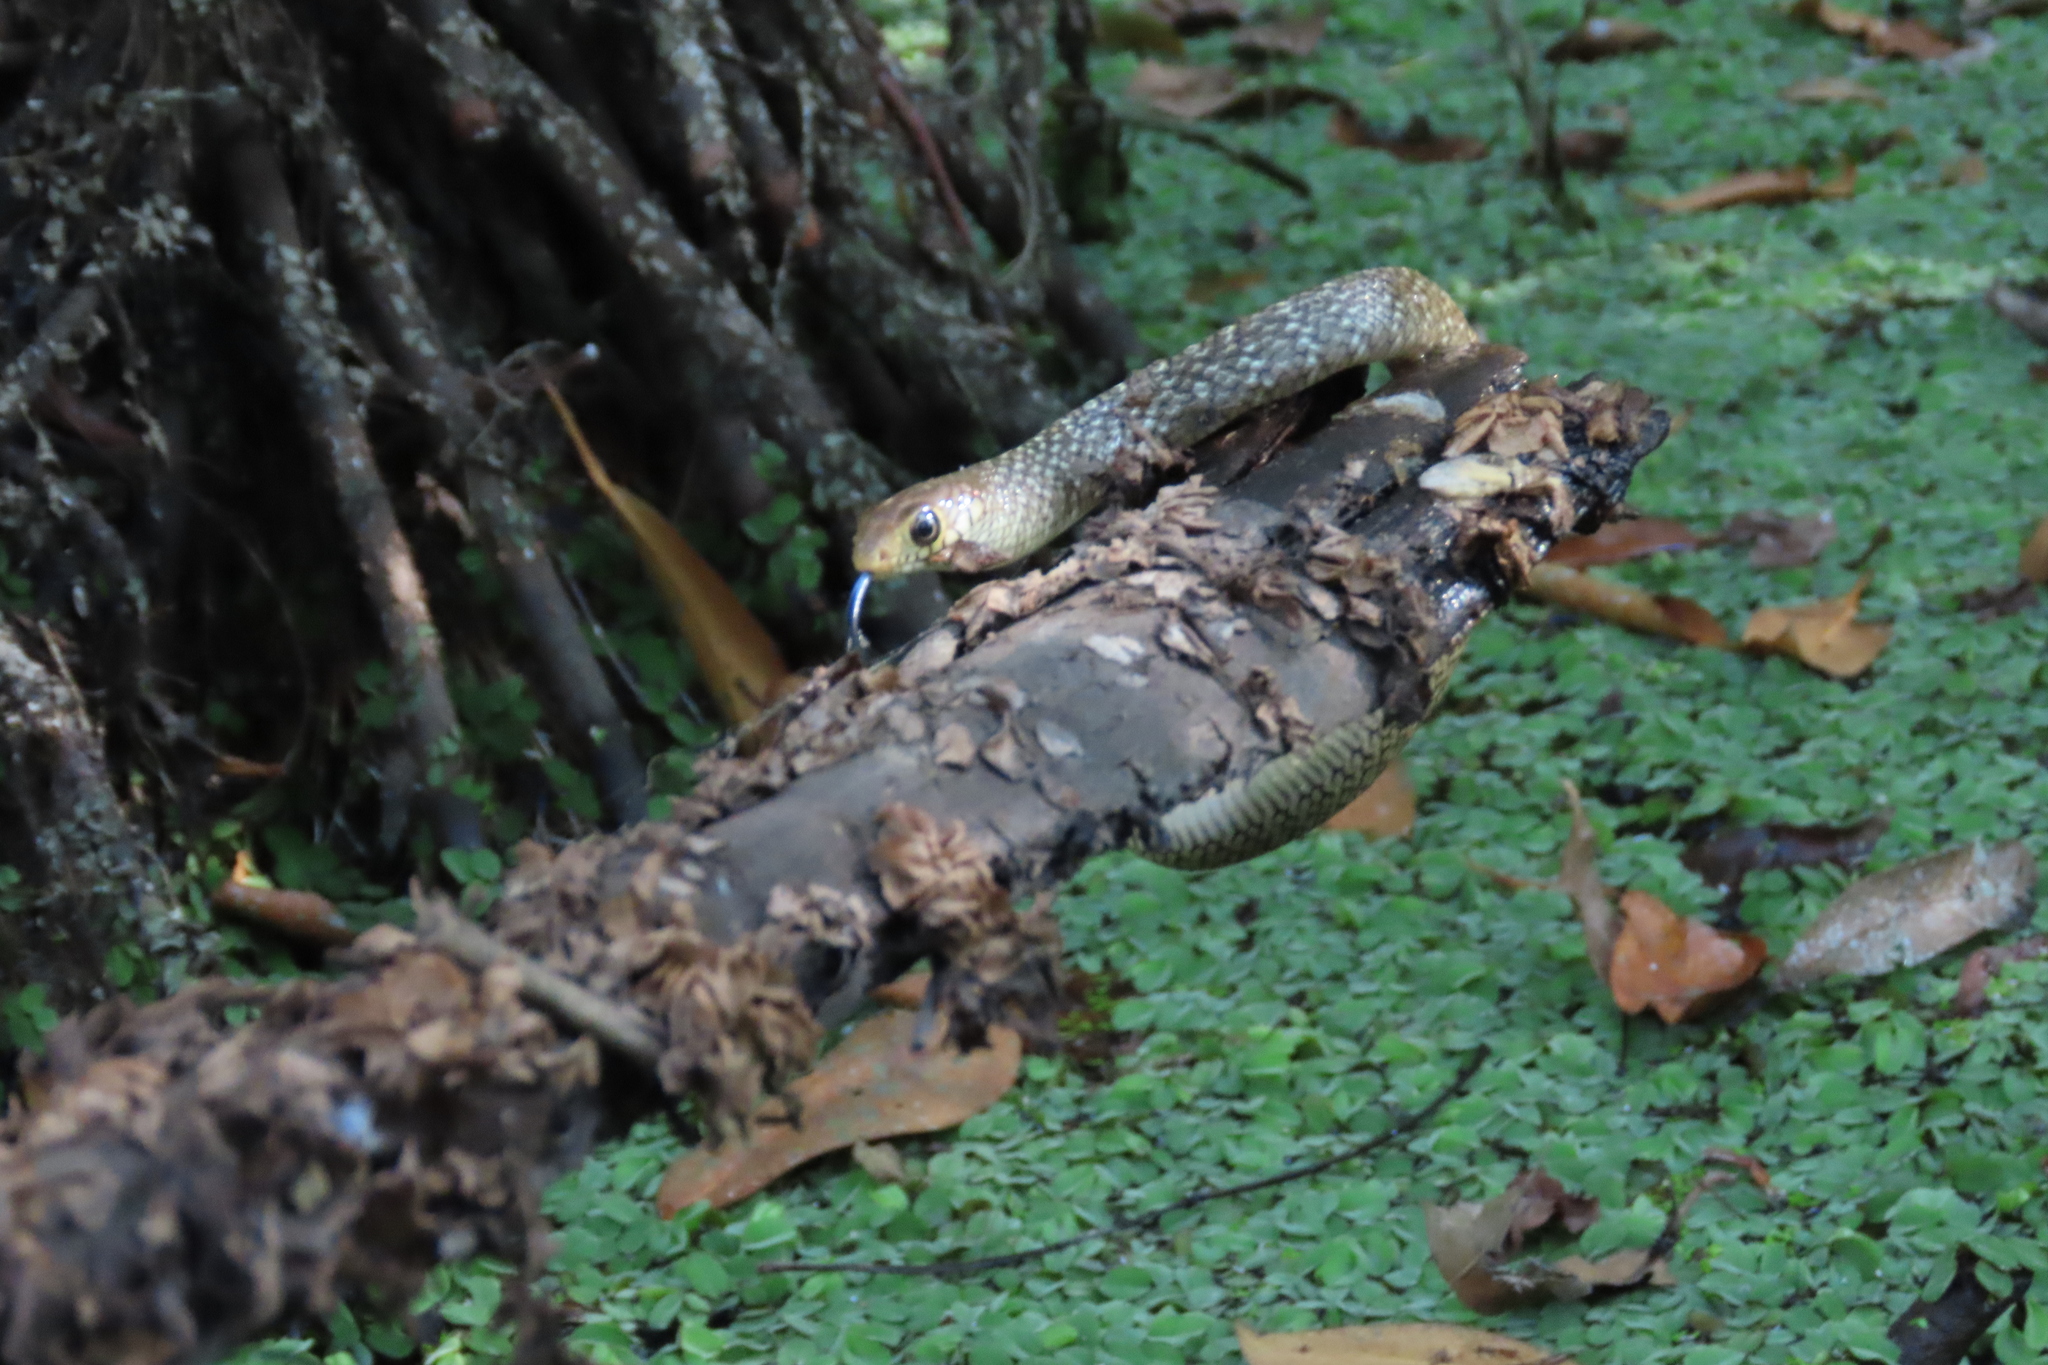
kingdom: Animalia
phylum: Chordata
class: Squamata
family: Colubridae
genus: Ptyas
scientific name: Ptyas mucosa
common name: Oriental ratsnake
